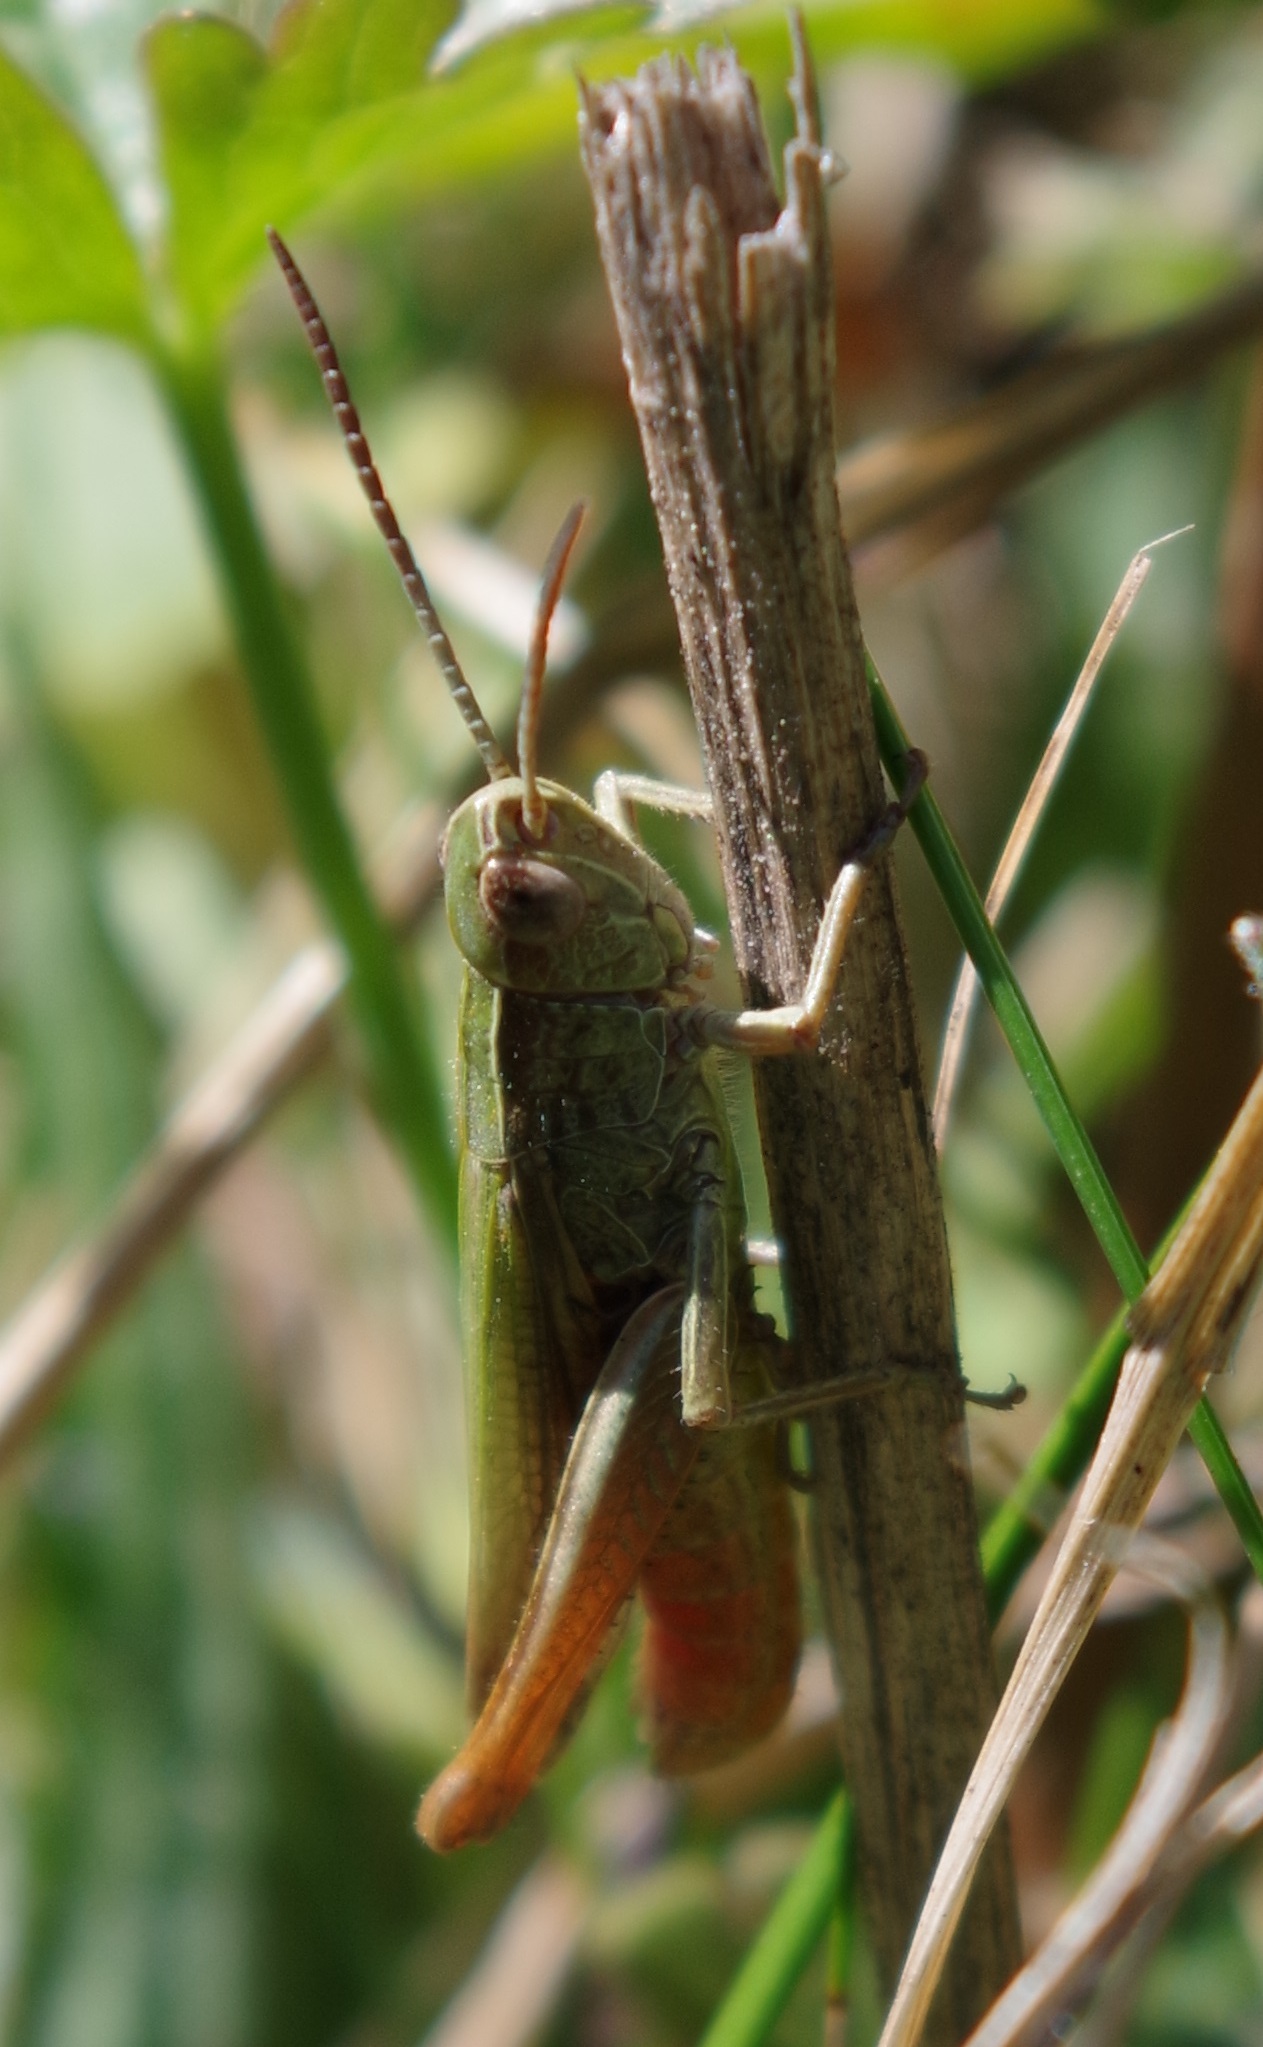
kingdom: Animalia
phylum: Arthropoda
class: Insecta
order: Orthoptera
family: Acrididae
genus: Chorthippus
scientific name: Chorthippus dorsatus
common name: Steppe grasshopper
